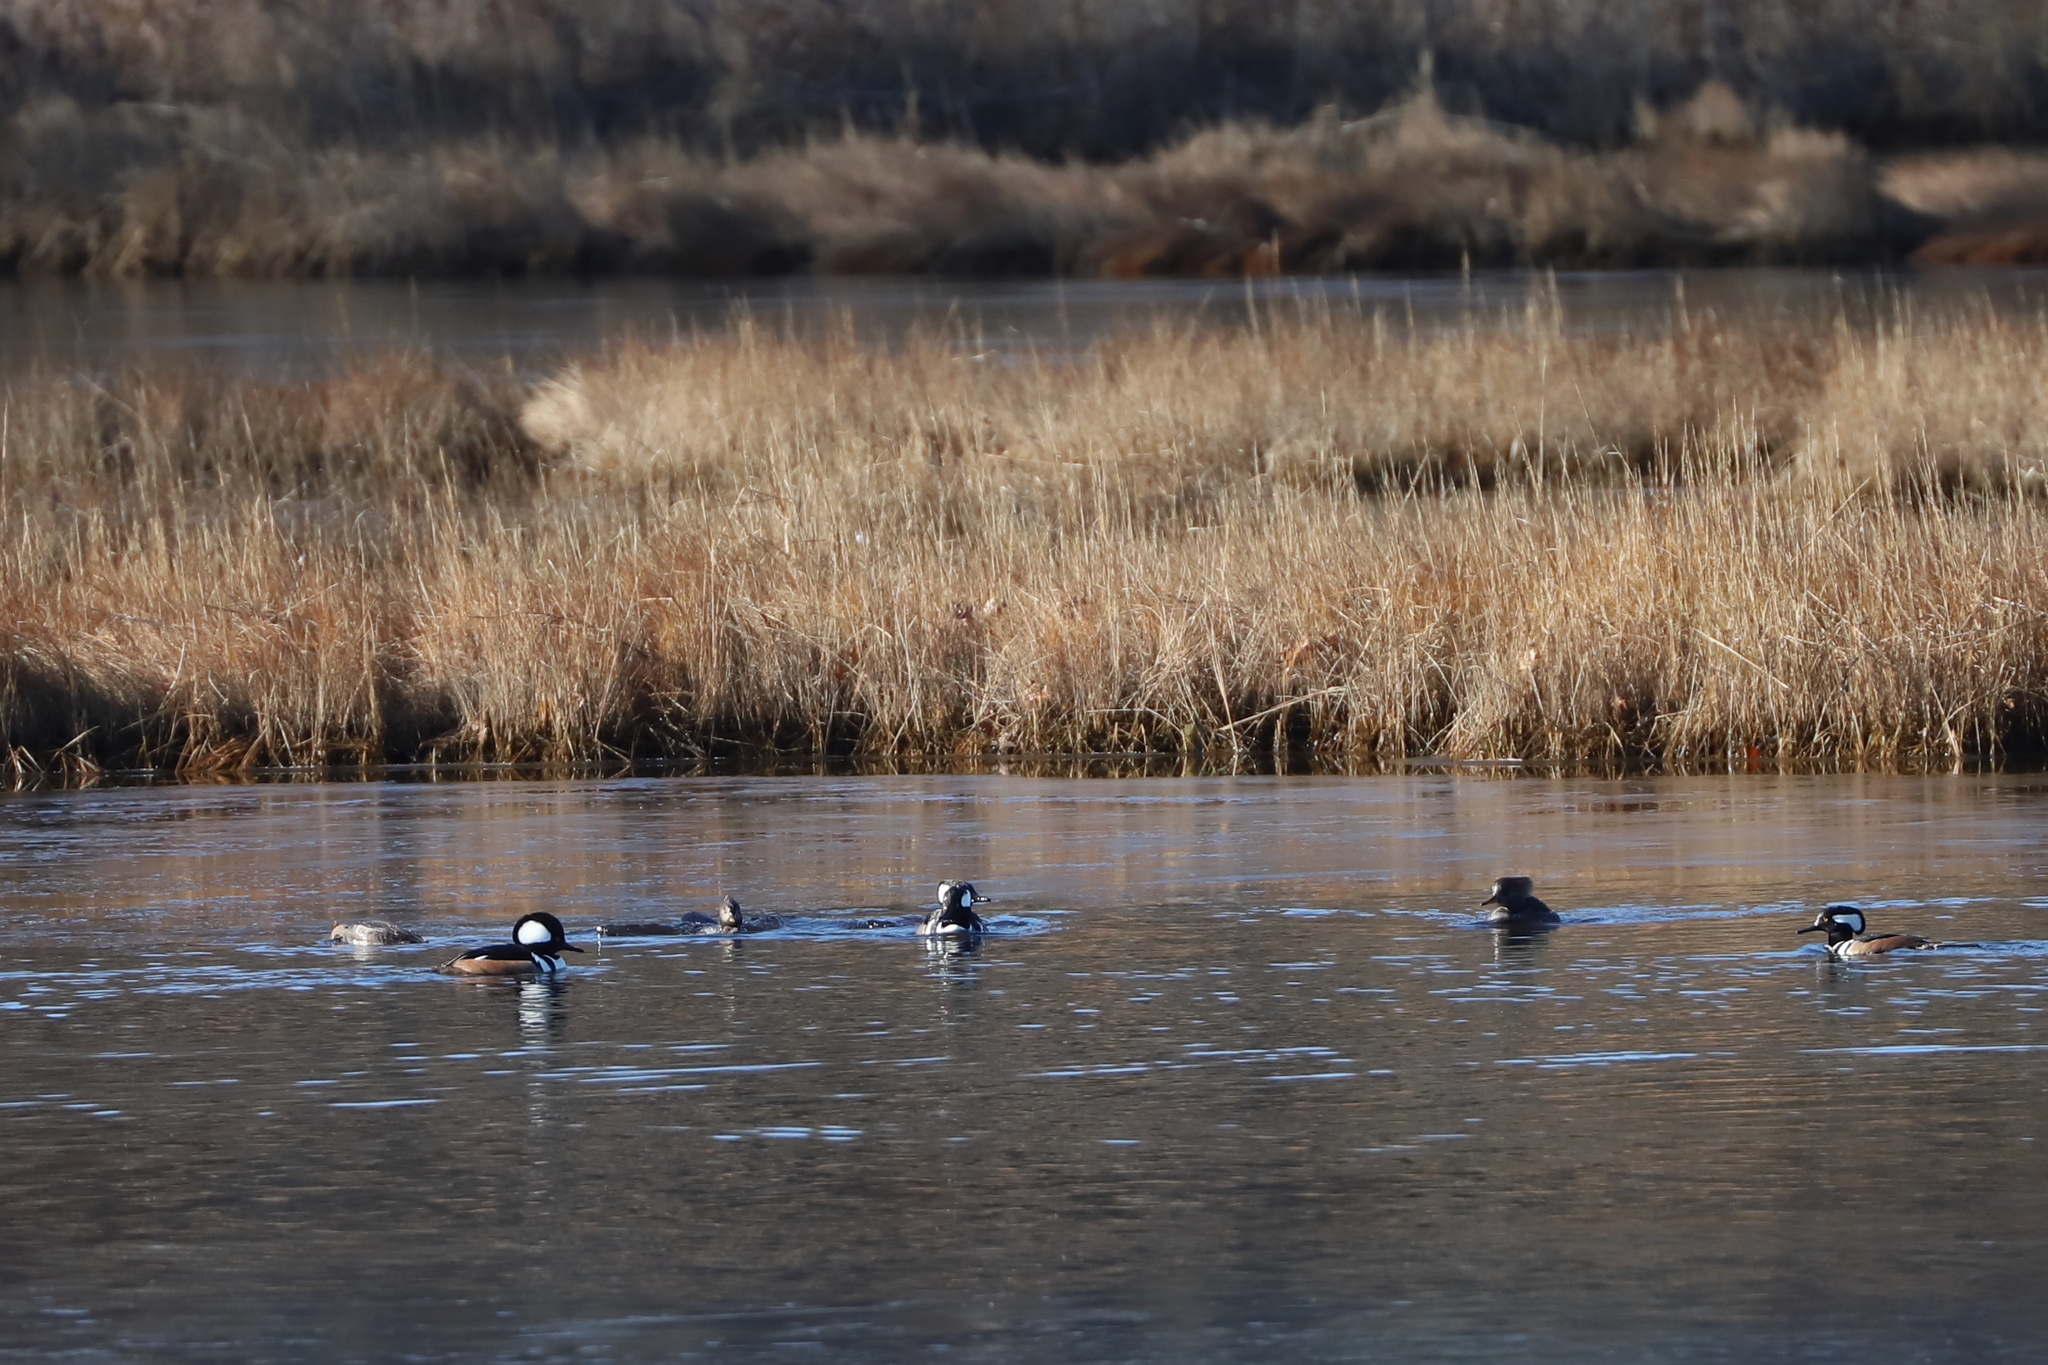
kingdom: Animalia
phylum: Chordata
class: Aves
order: Anseriformes
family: Anatidae
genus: Lophodytes
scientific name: Lophodytes cucullatus
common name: Hooded merganser
